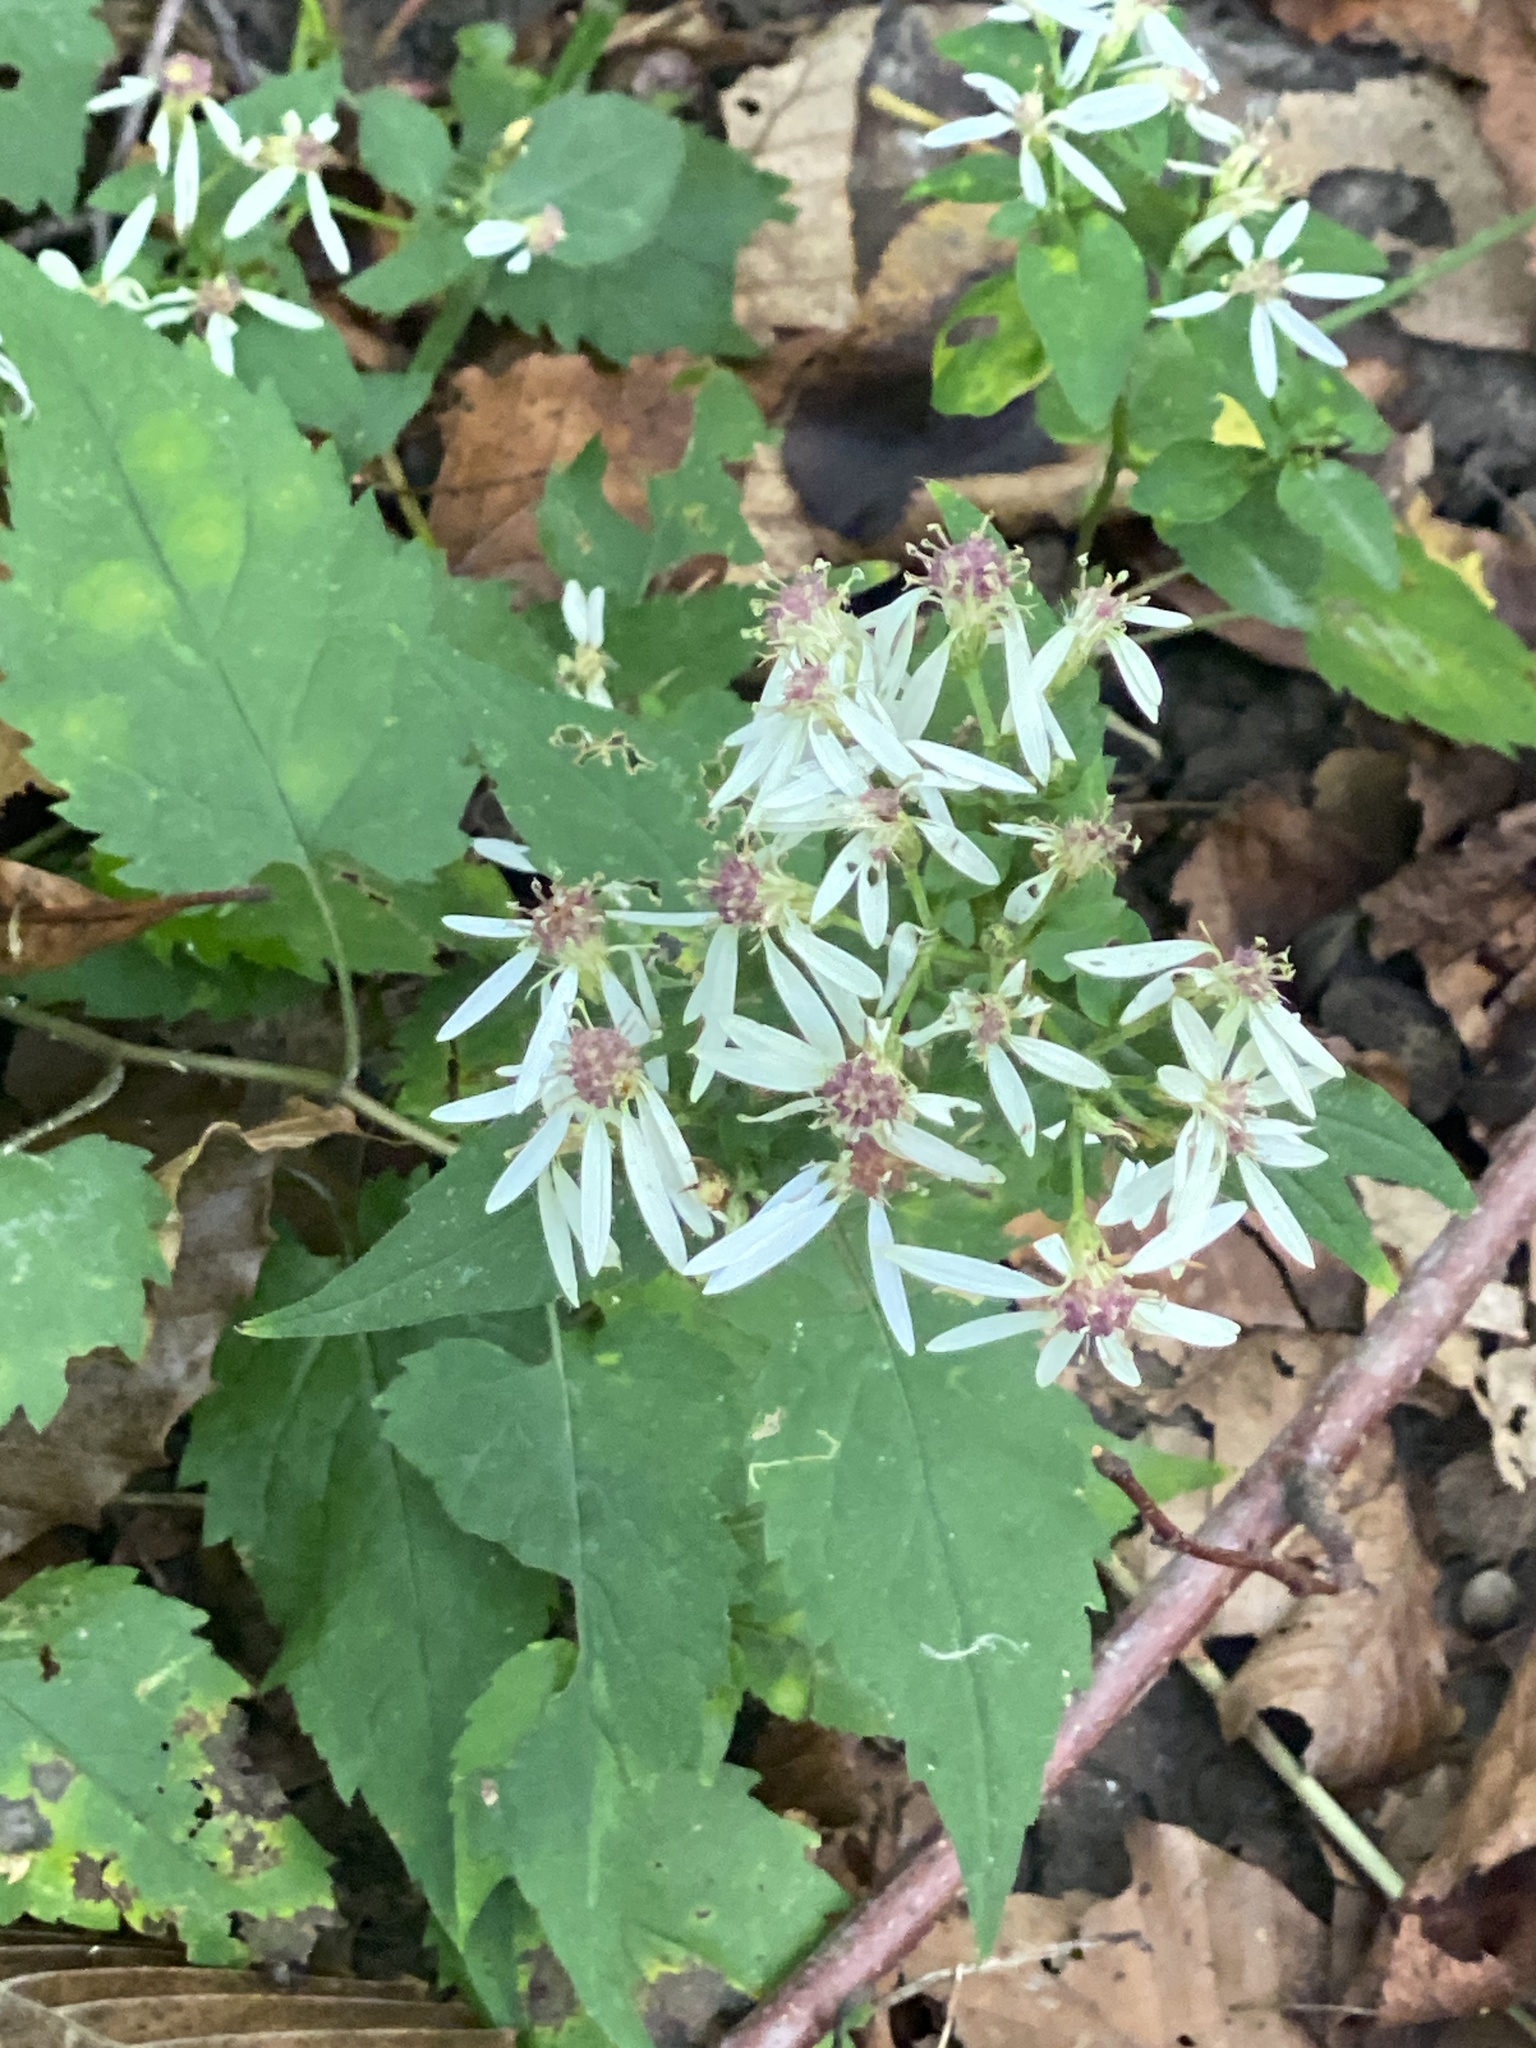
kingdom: Plantae
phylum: Tracheophyta
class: Magnoliopsida
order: Asterales
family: Asteraceae
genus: Eurybia
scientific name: Eurybia divaricata
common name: White wood aster
